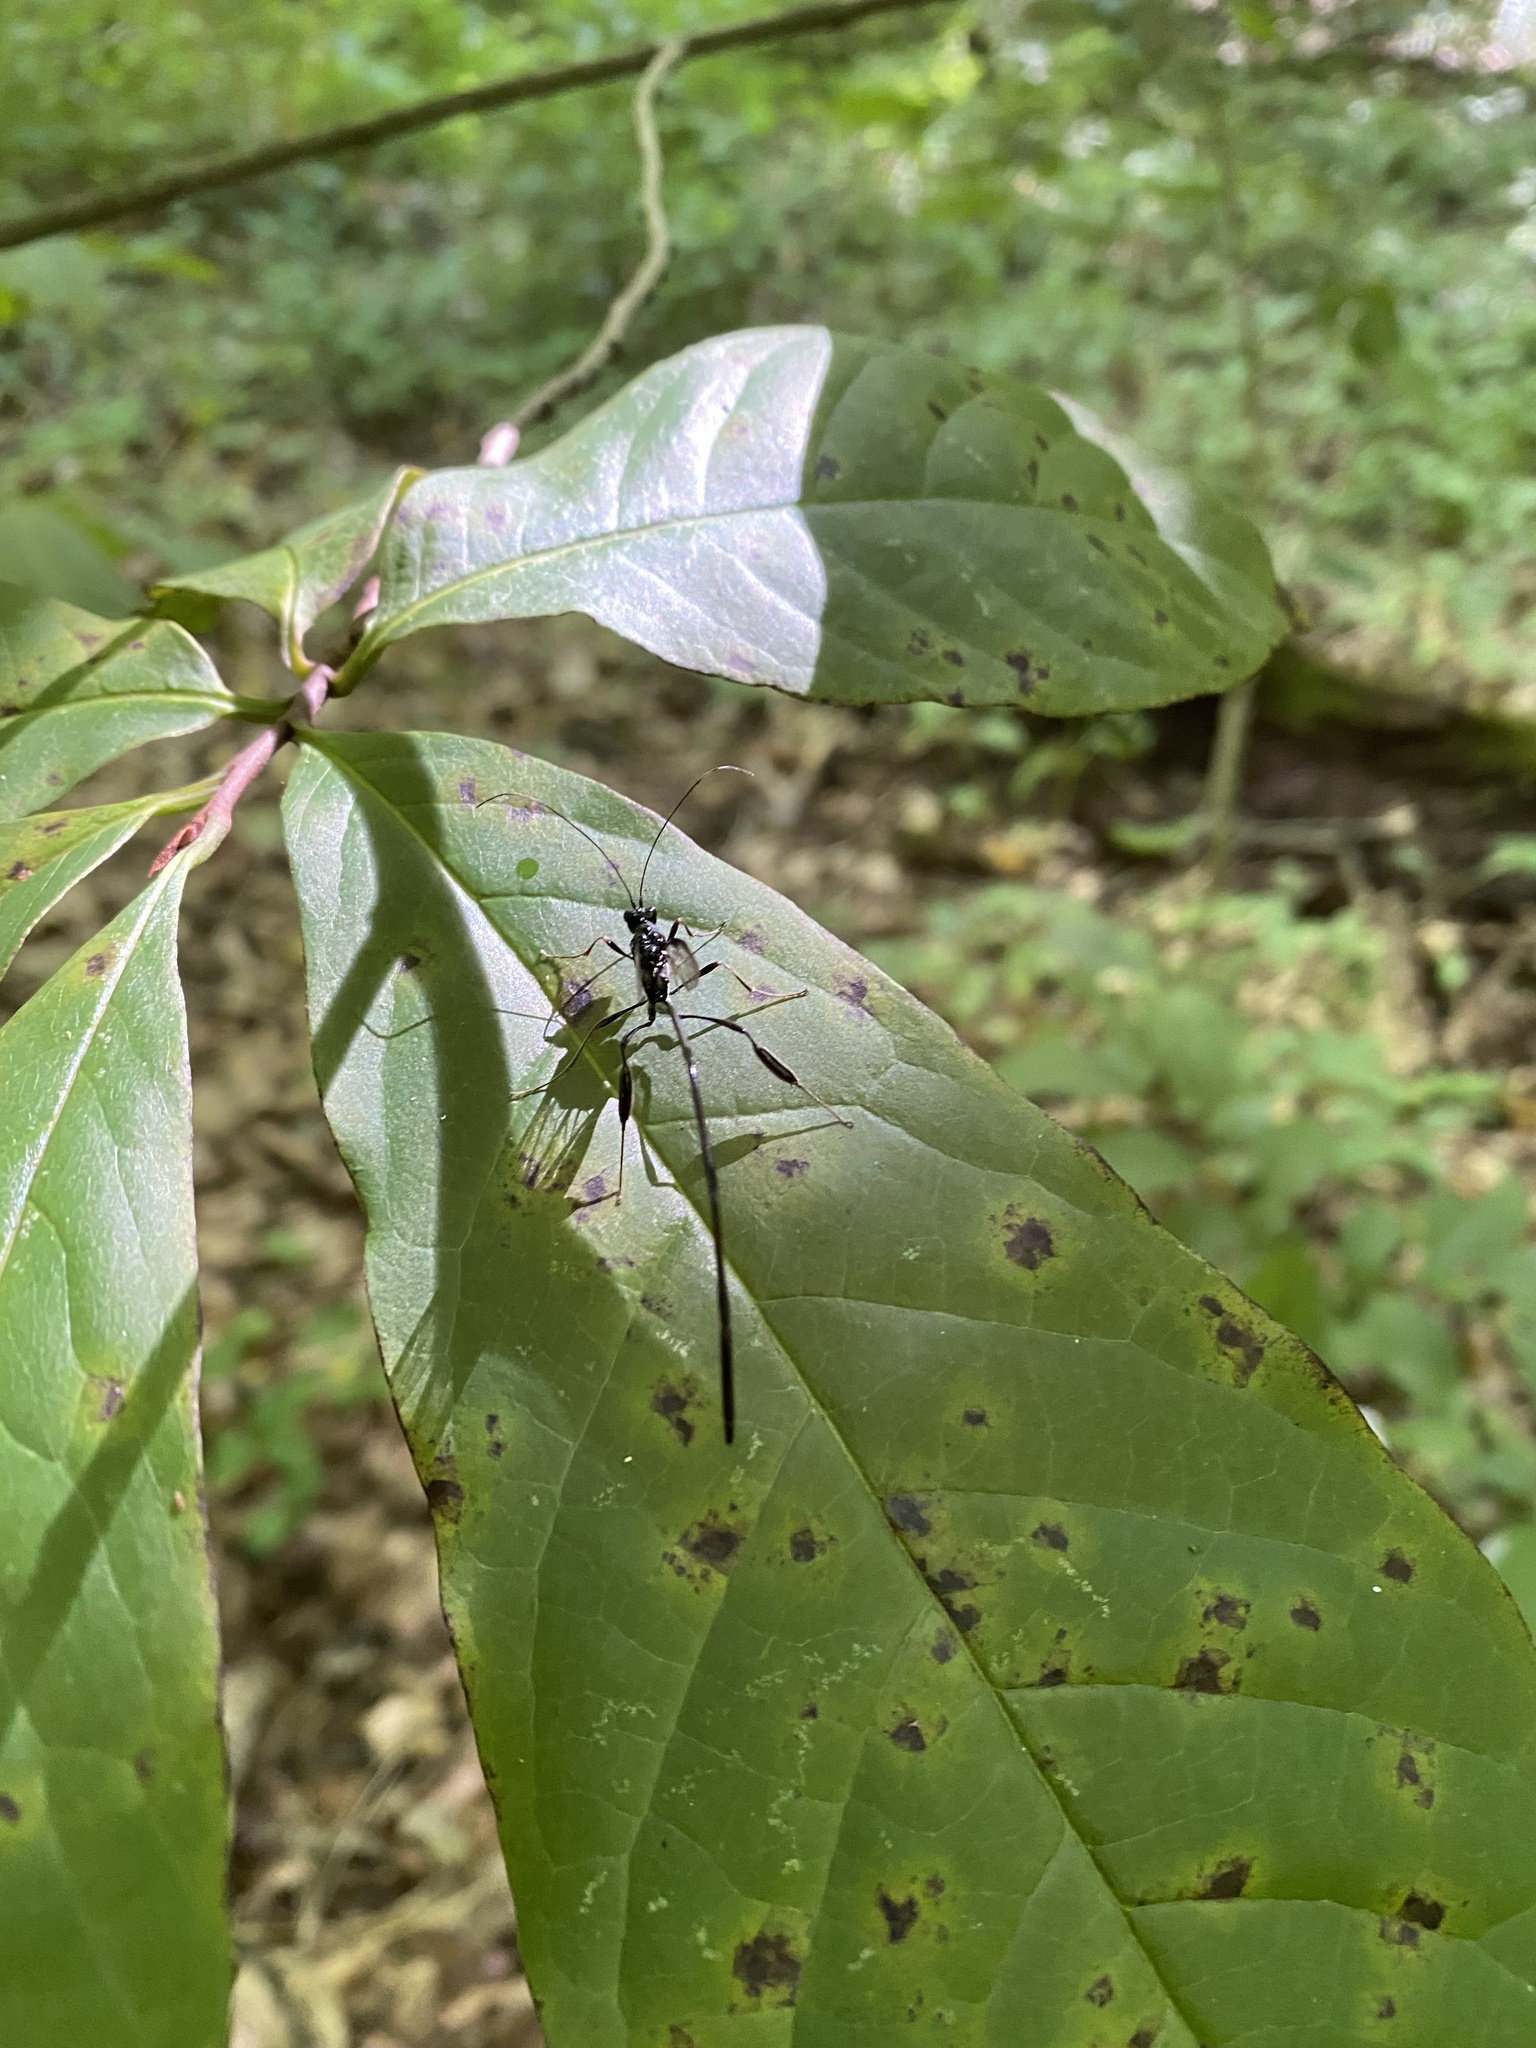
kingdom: Animalia
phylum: Arthropoda
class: Insecta
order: Hymenoptera
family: Pelecinidae
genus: Pelecinus
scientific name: Pelecinus polyturator
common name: American pelecinid wasp
